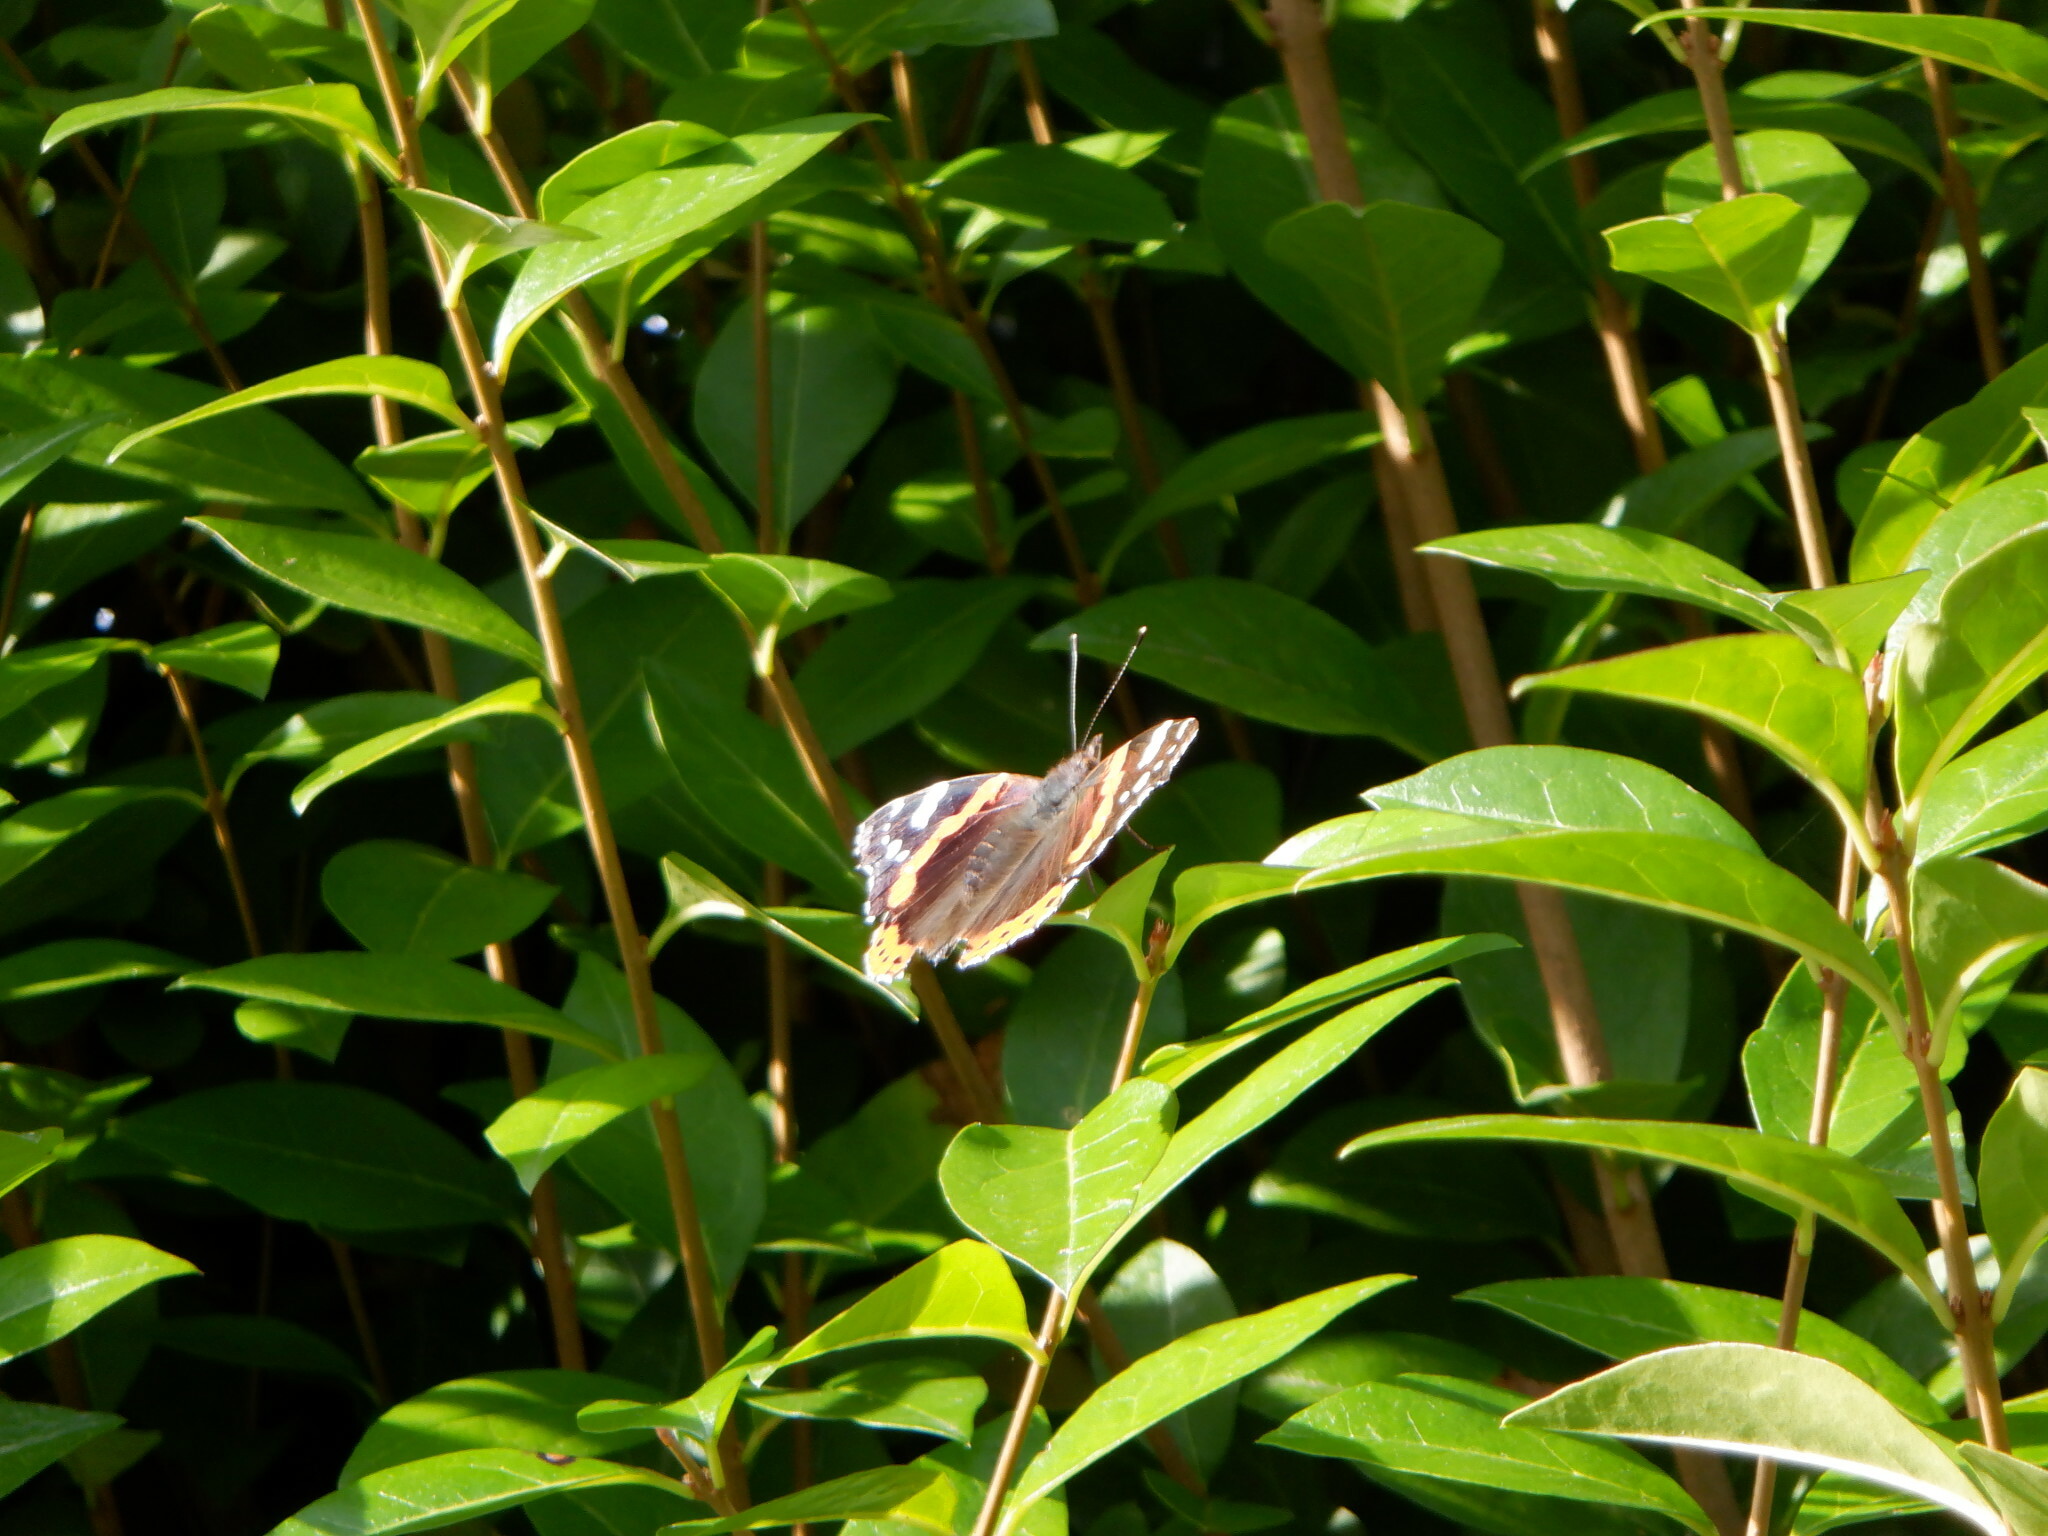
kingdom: Animalia
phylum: Arthropoda
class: Insecta
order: Lepidoptera
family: Nymphalidae
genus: Vanessa
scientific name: Vanessa atalanta
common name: Red admiral
